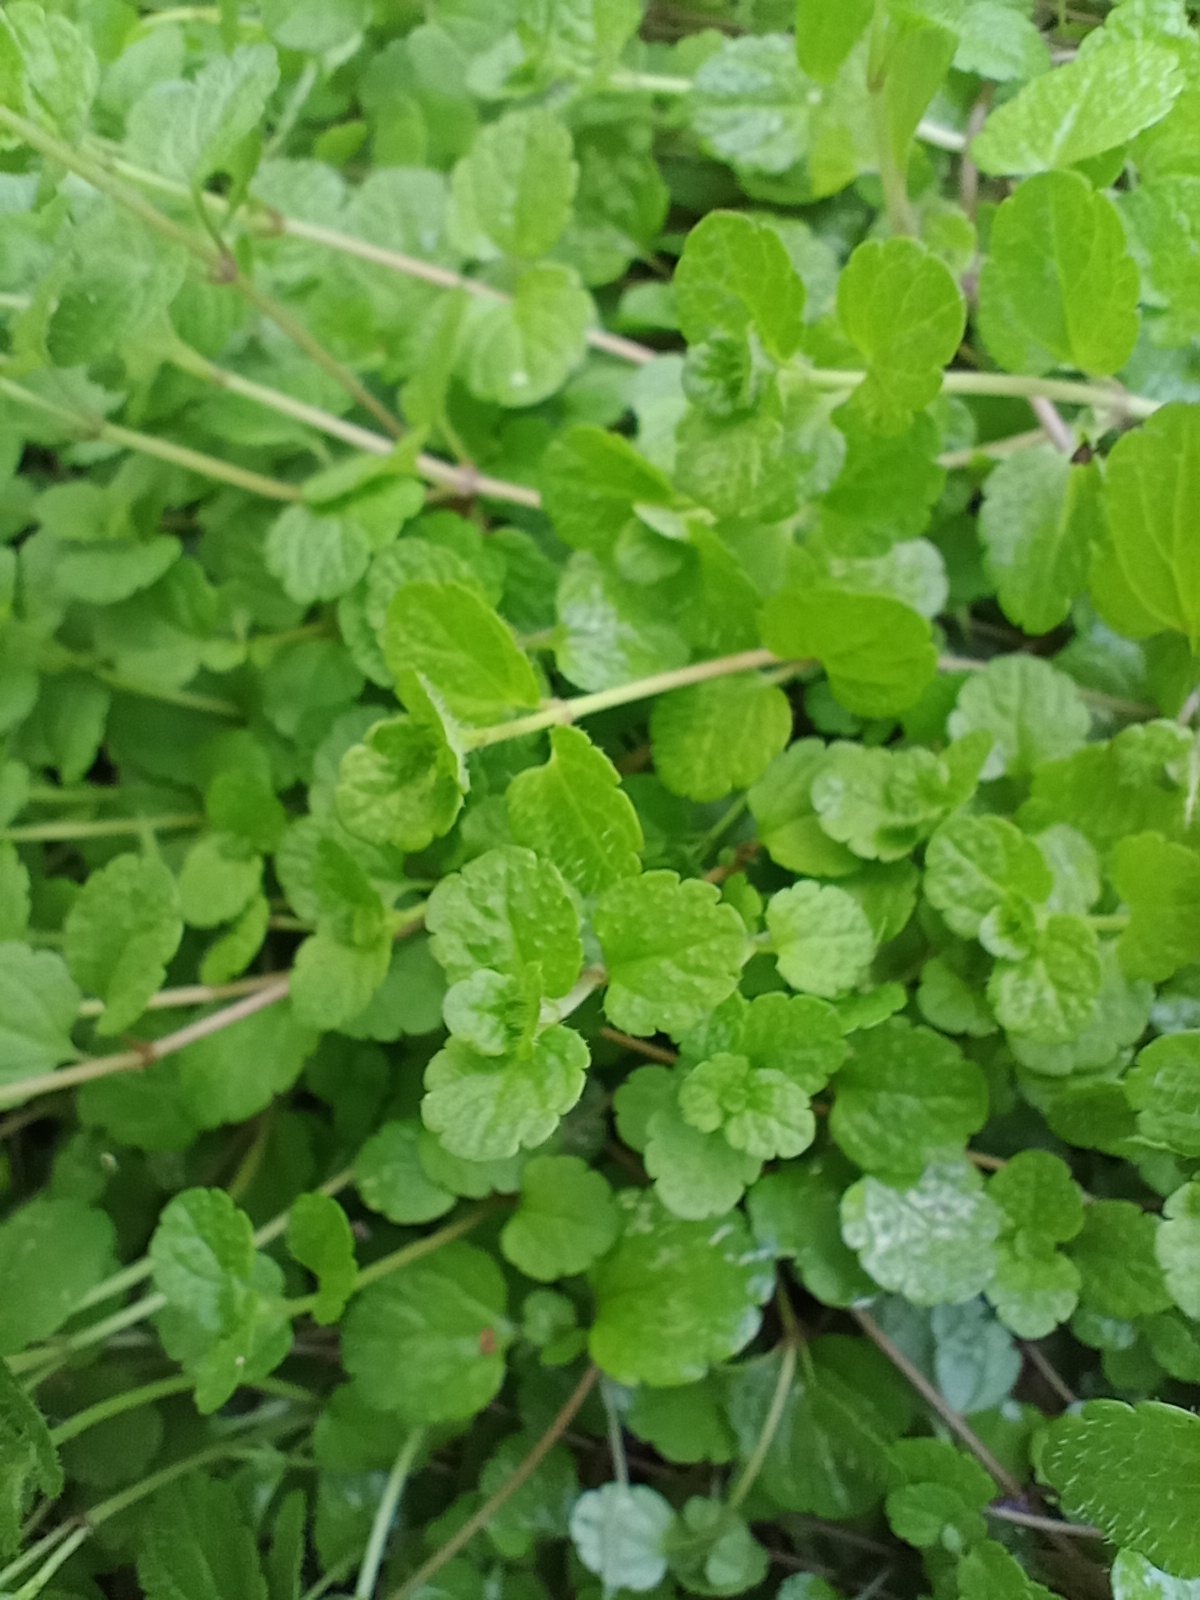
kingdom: Plantae
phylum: Tracheophyta
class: Magnoliopsida
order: Lamiales
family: Plantaginaceae
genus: Veronica
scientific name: Veronica filiformis
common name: Slender speedwell
